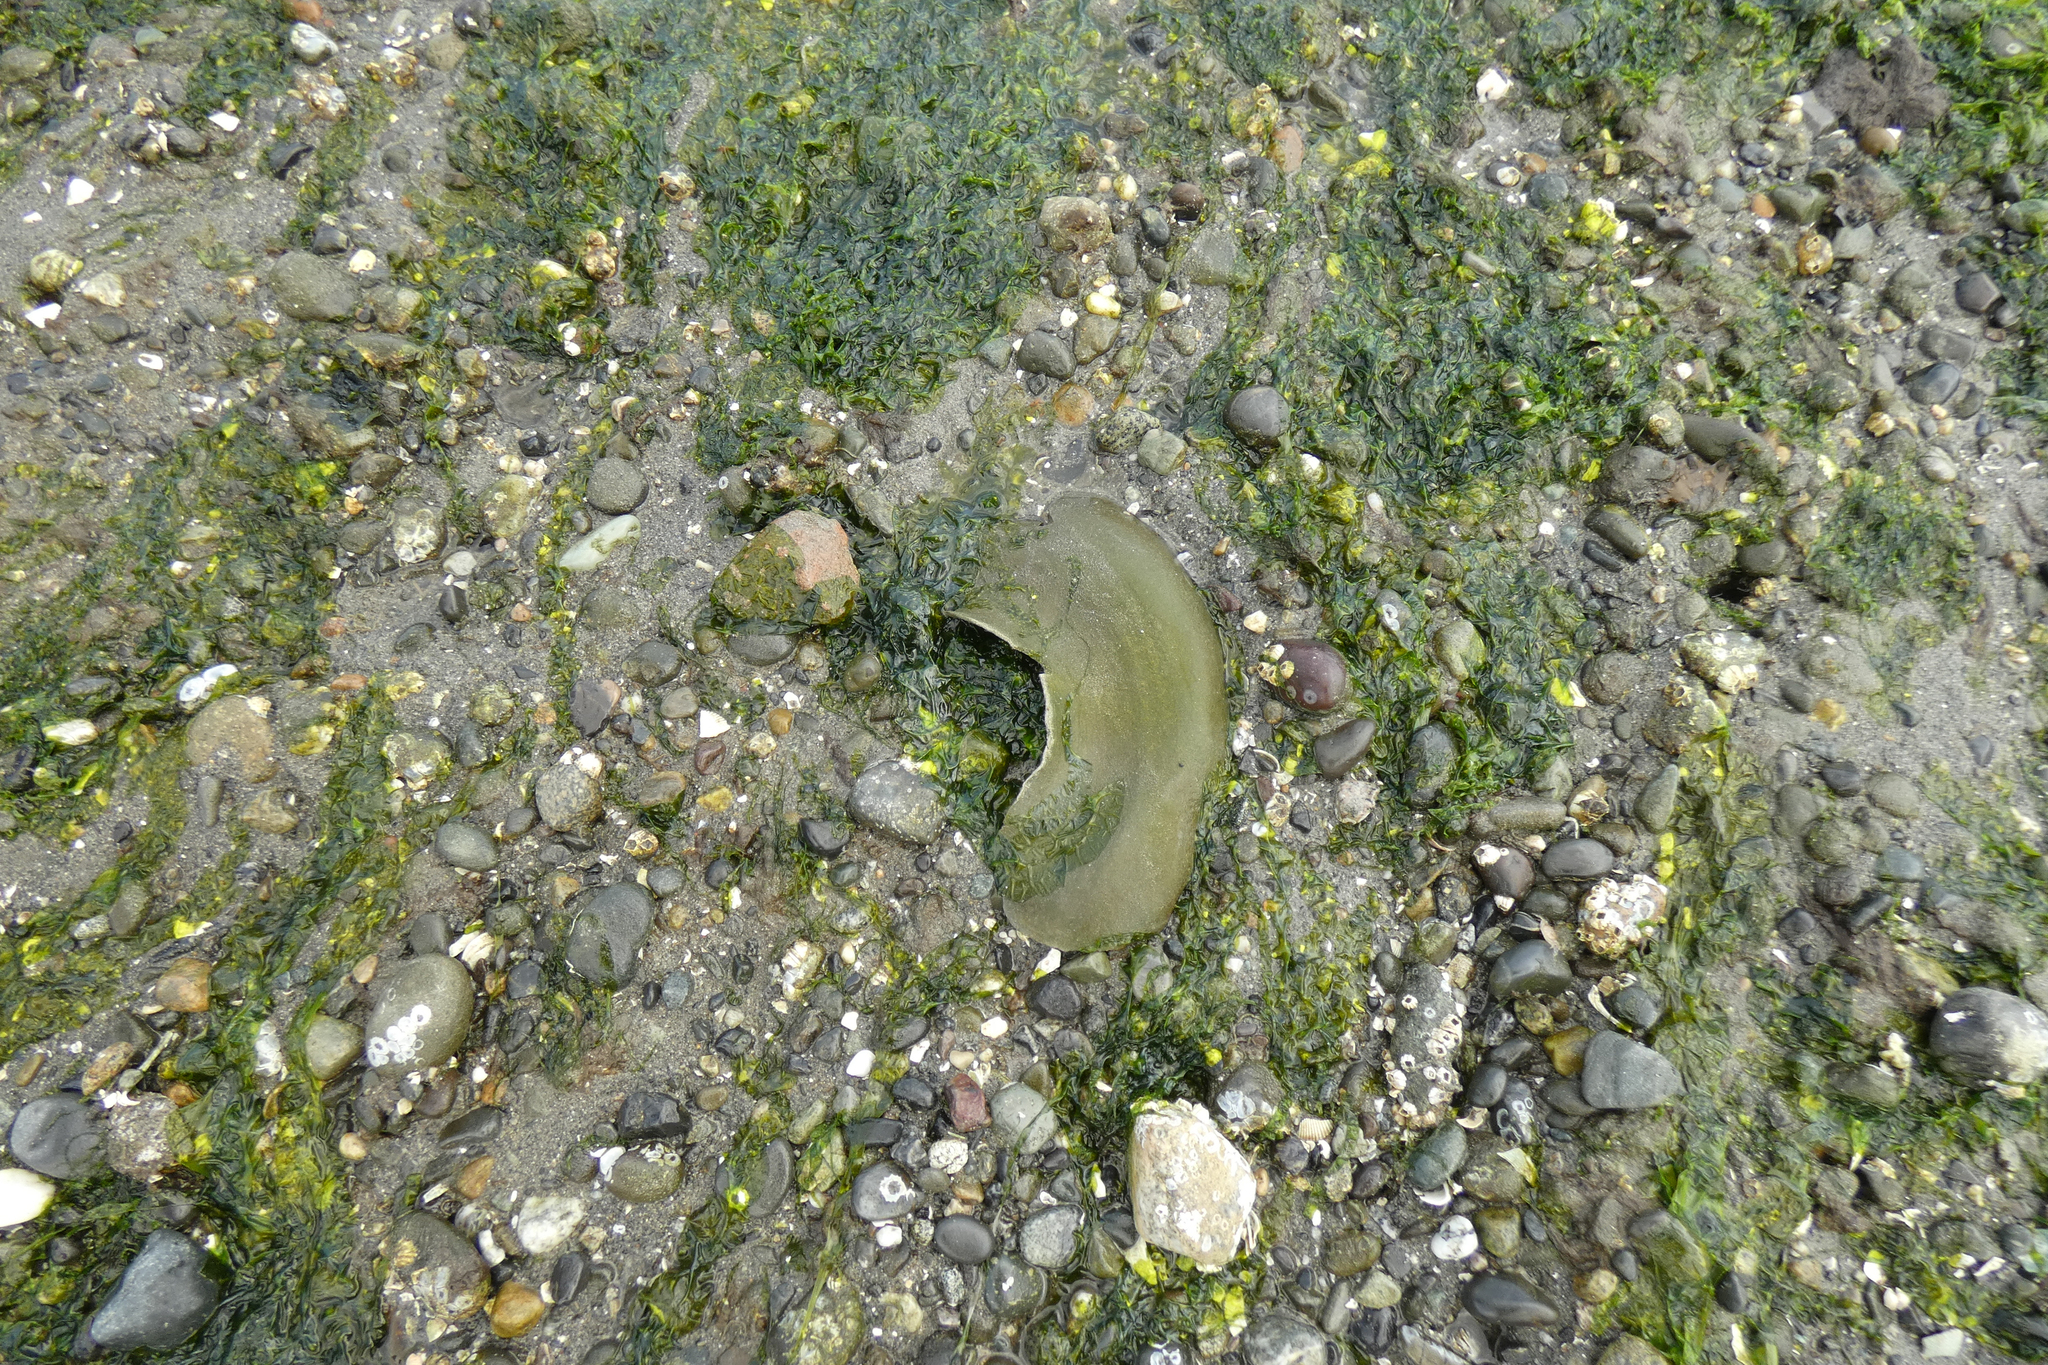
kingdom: Animalia
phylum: Mollusca
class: Gastropoda
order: Littorinimorpha
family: Naticidae
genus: Neverita
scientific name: Neverita lewisii
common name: Lewis' moonsnail
